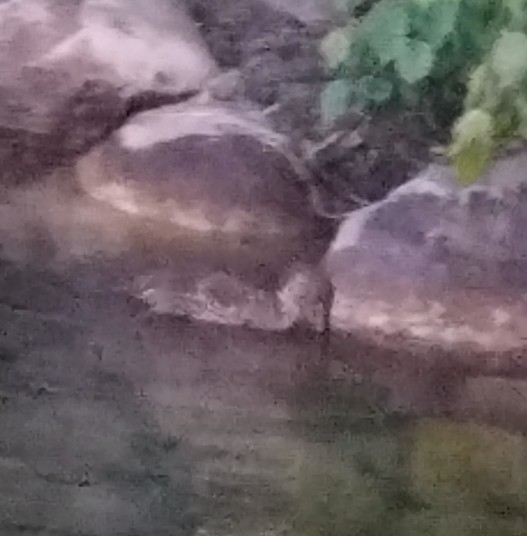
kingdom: Animalia
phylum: Chordata
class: Aves
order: Anseriformes
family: Anatidae
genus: Anas
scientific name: Anas platyrhynchos
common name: Mallard
